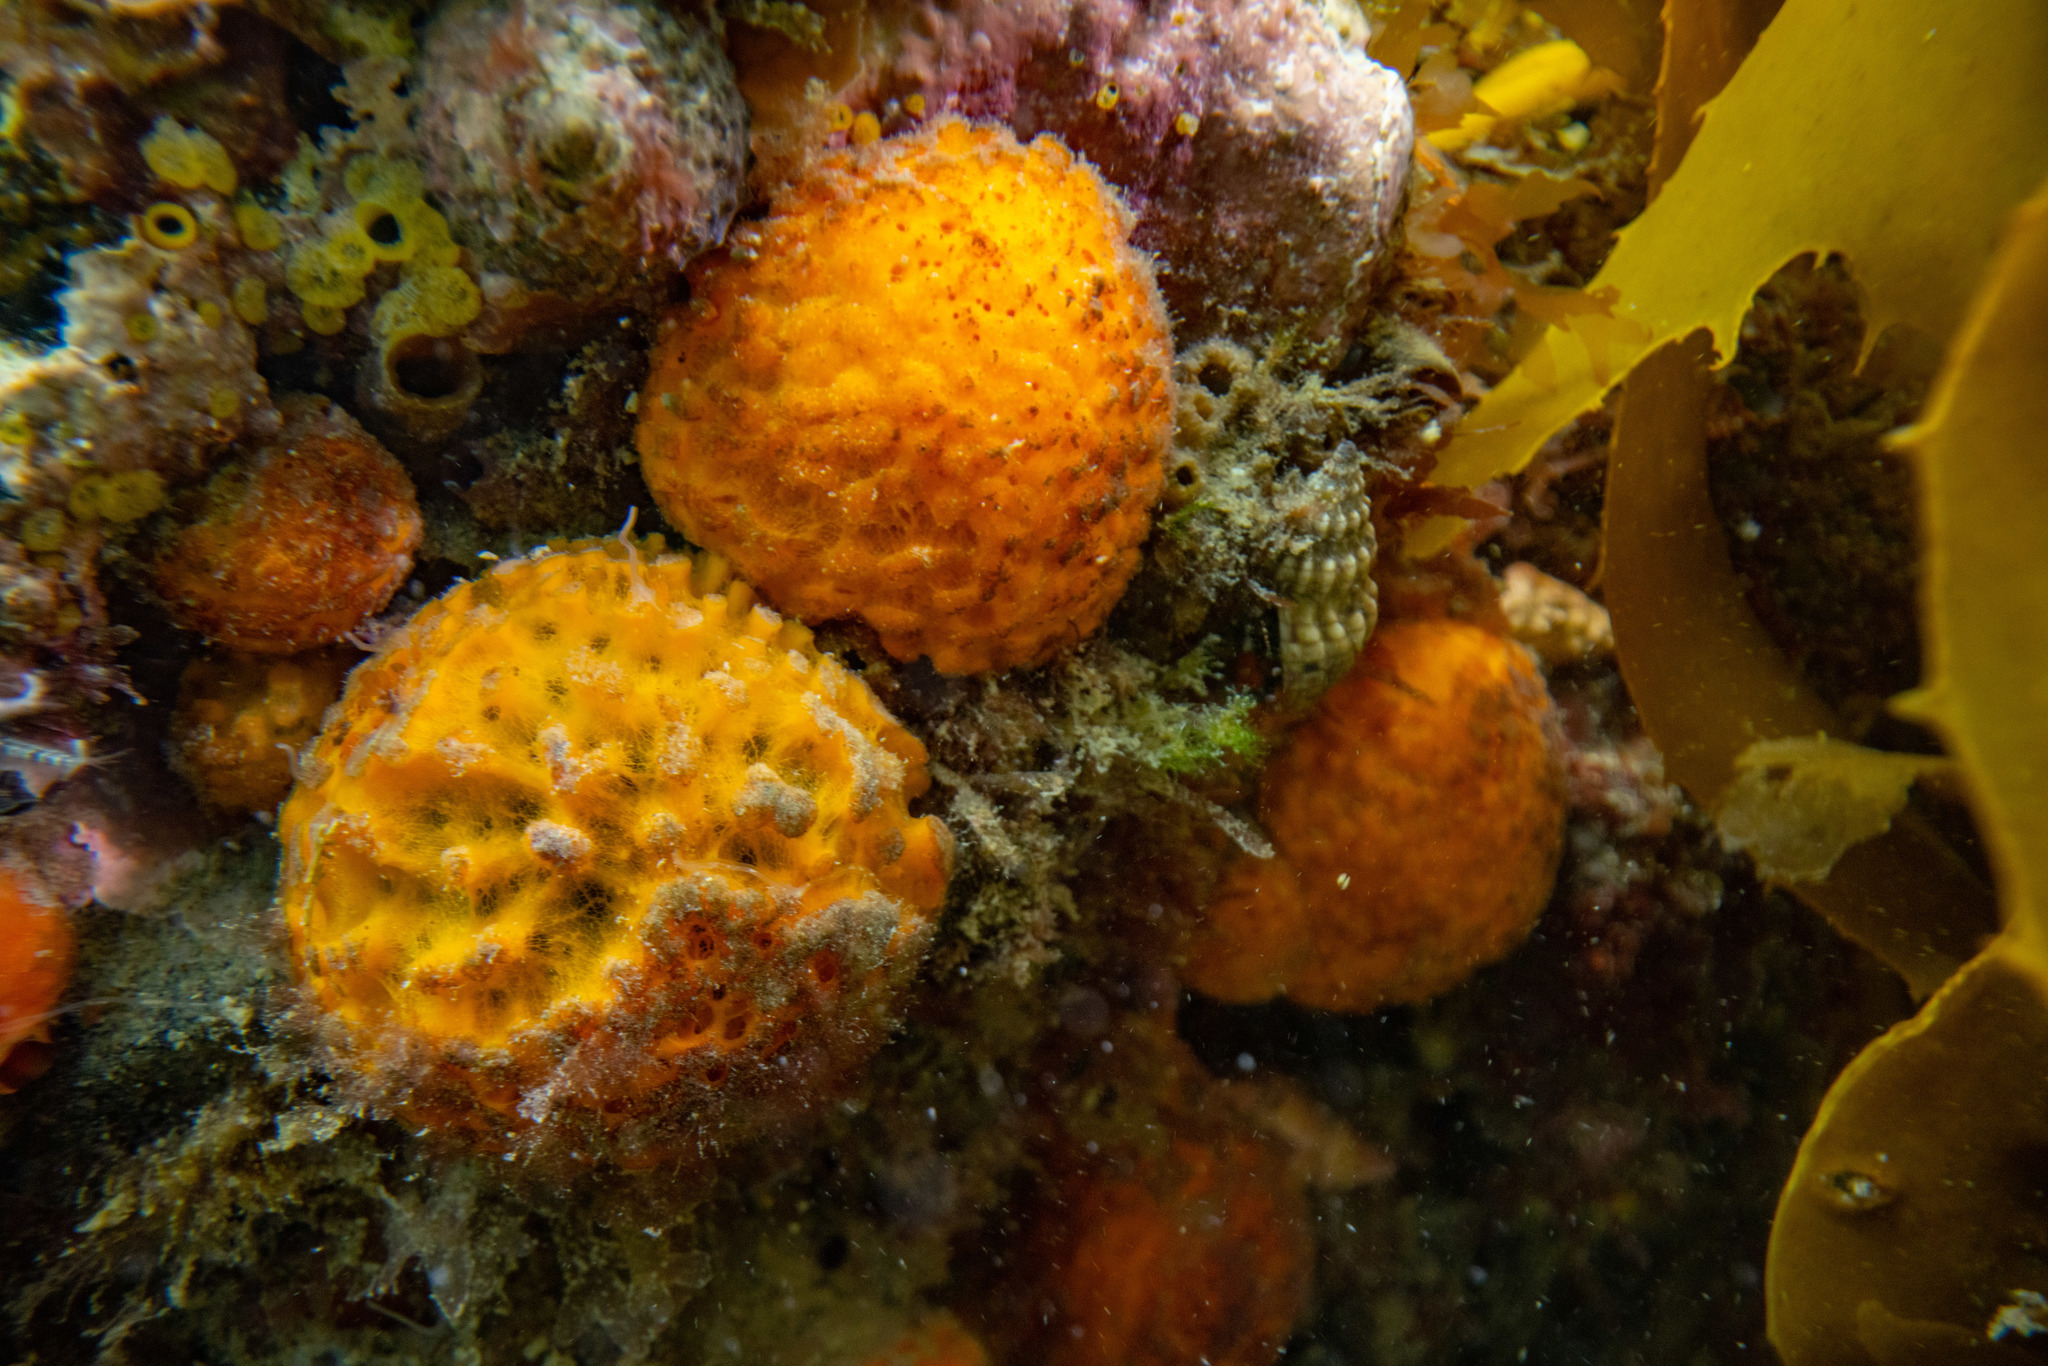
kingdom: Animalia
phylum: Porifera
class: Demospongiae
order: Tethyida
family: Tethyidae
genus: Tethya
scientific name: Tethya burtoni
